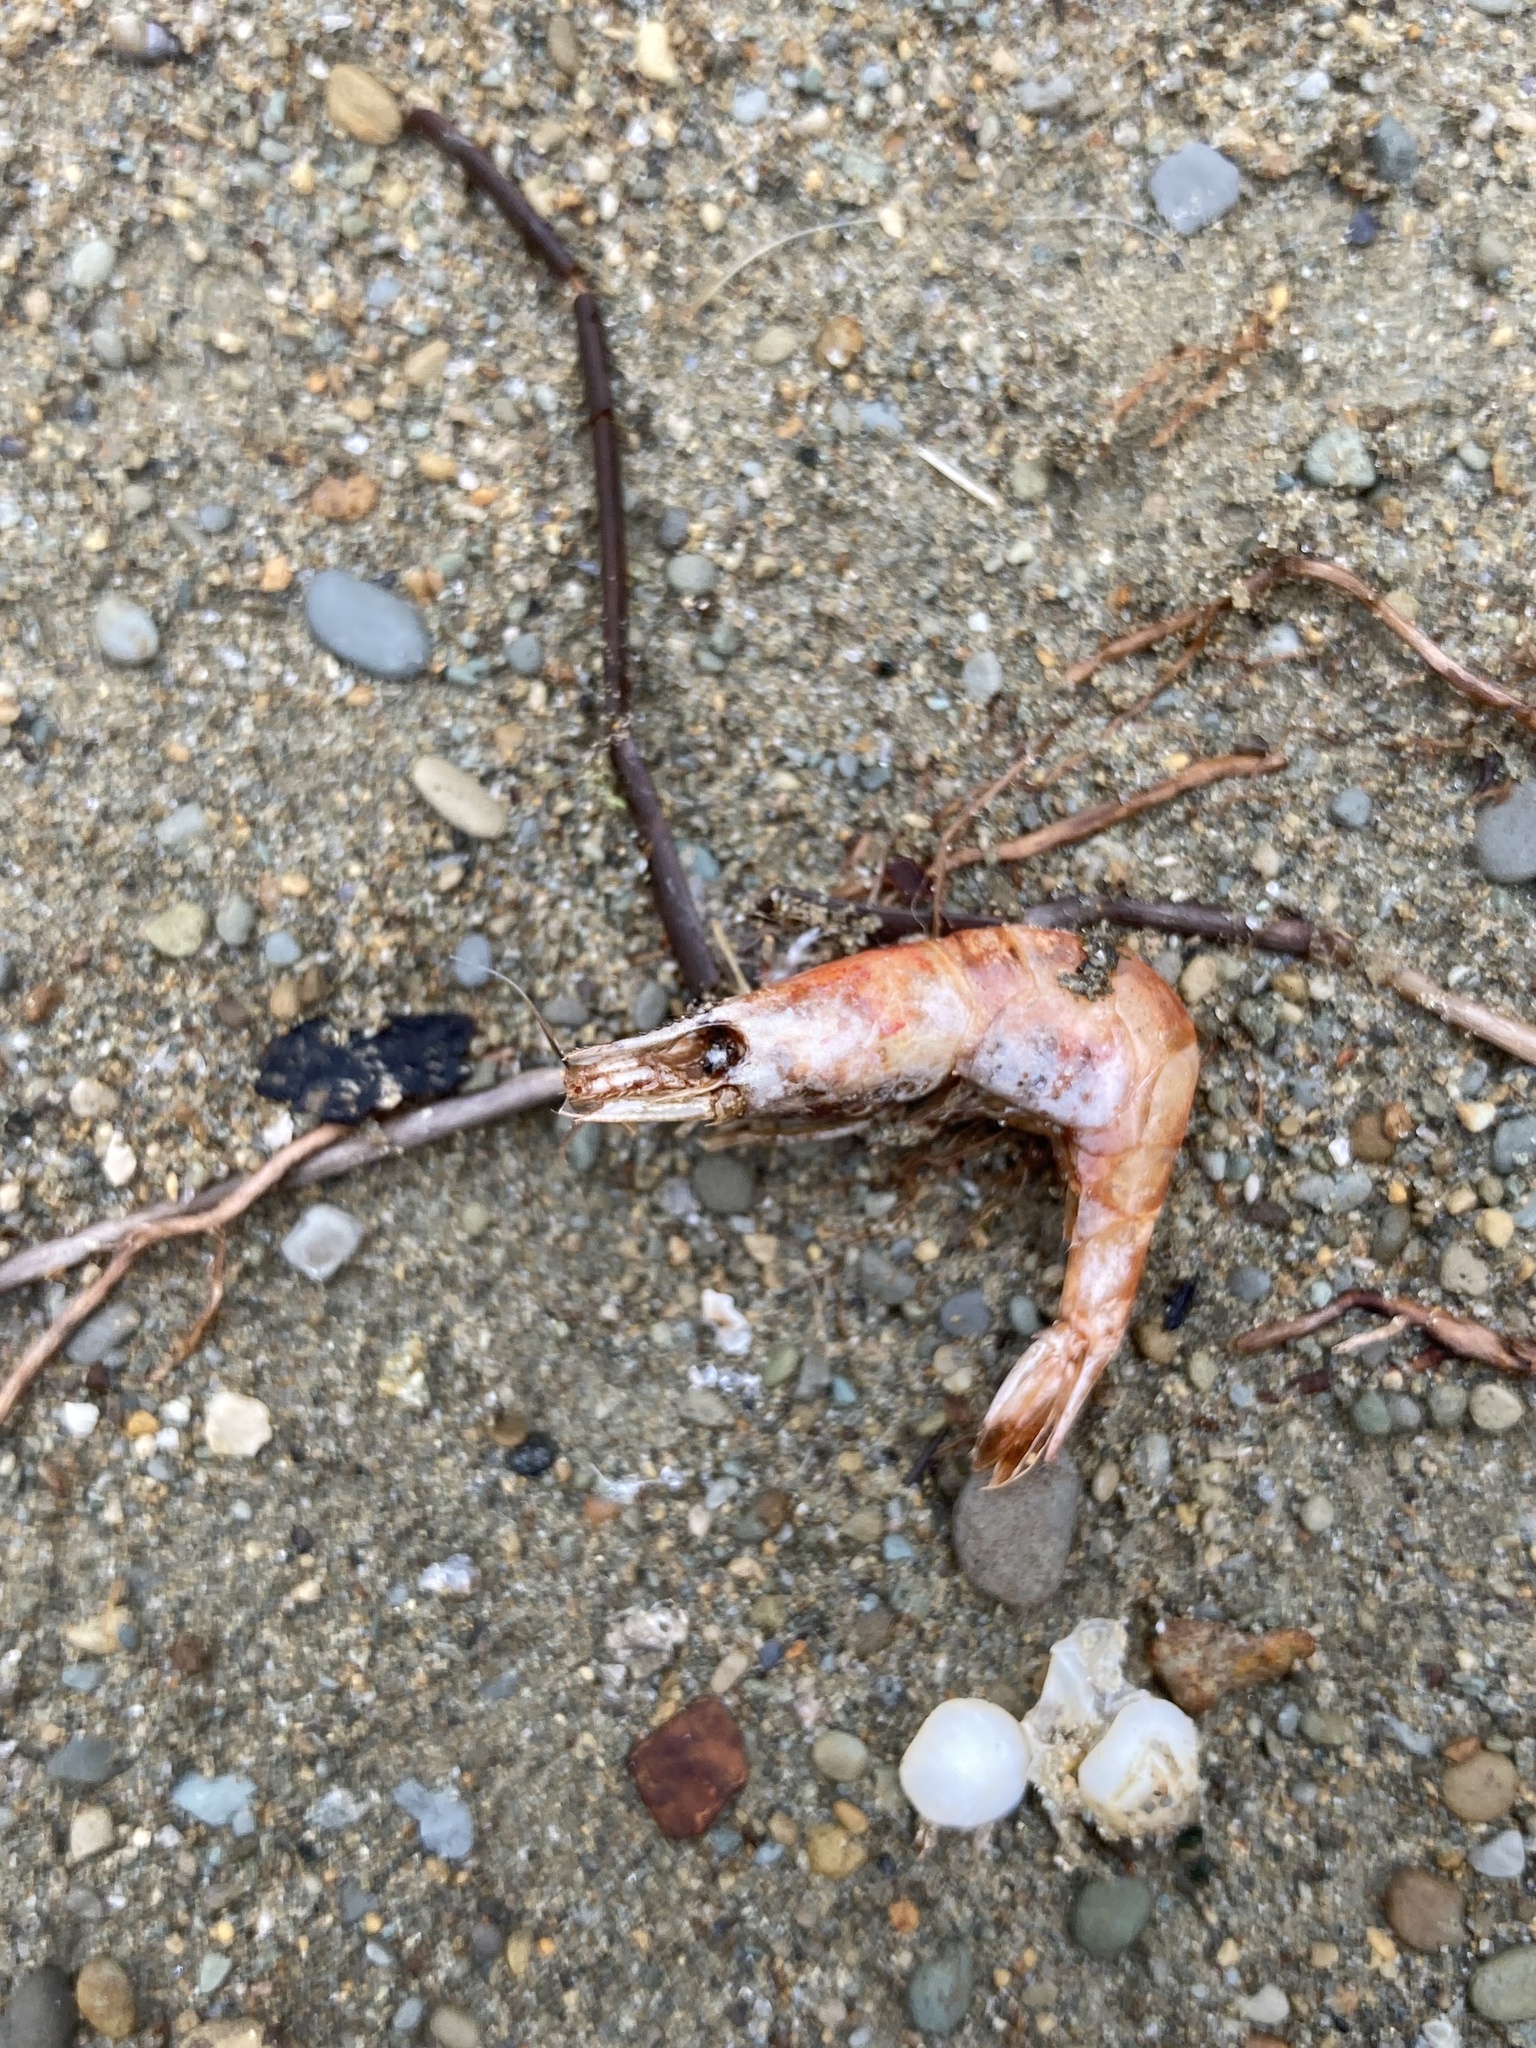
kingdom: Animalia
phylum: Arthropoda
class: Malacostraca
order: Decapoda
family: Atyidae
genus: Paratya
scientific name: Paratya curvirostris
